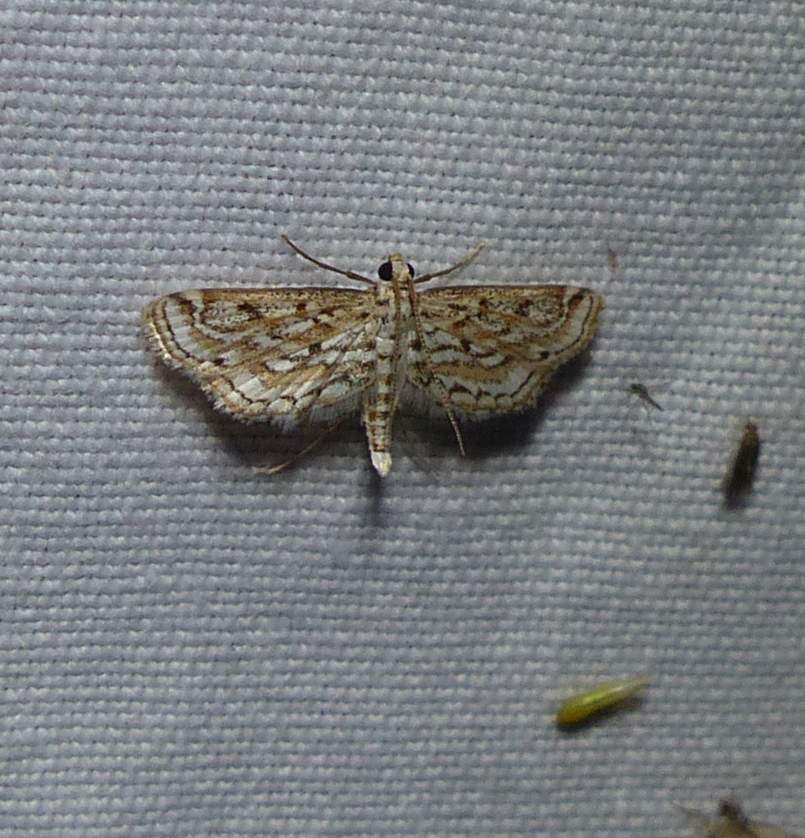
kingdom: Animalia
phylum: Arthropoda
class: Insecta
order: Lepidoptera
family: Crambidae
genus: Parapoynx
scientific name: Parapoynx allionealis
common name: Bladderwort casemaker
